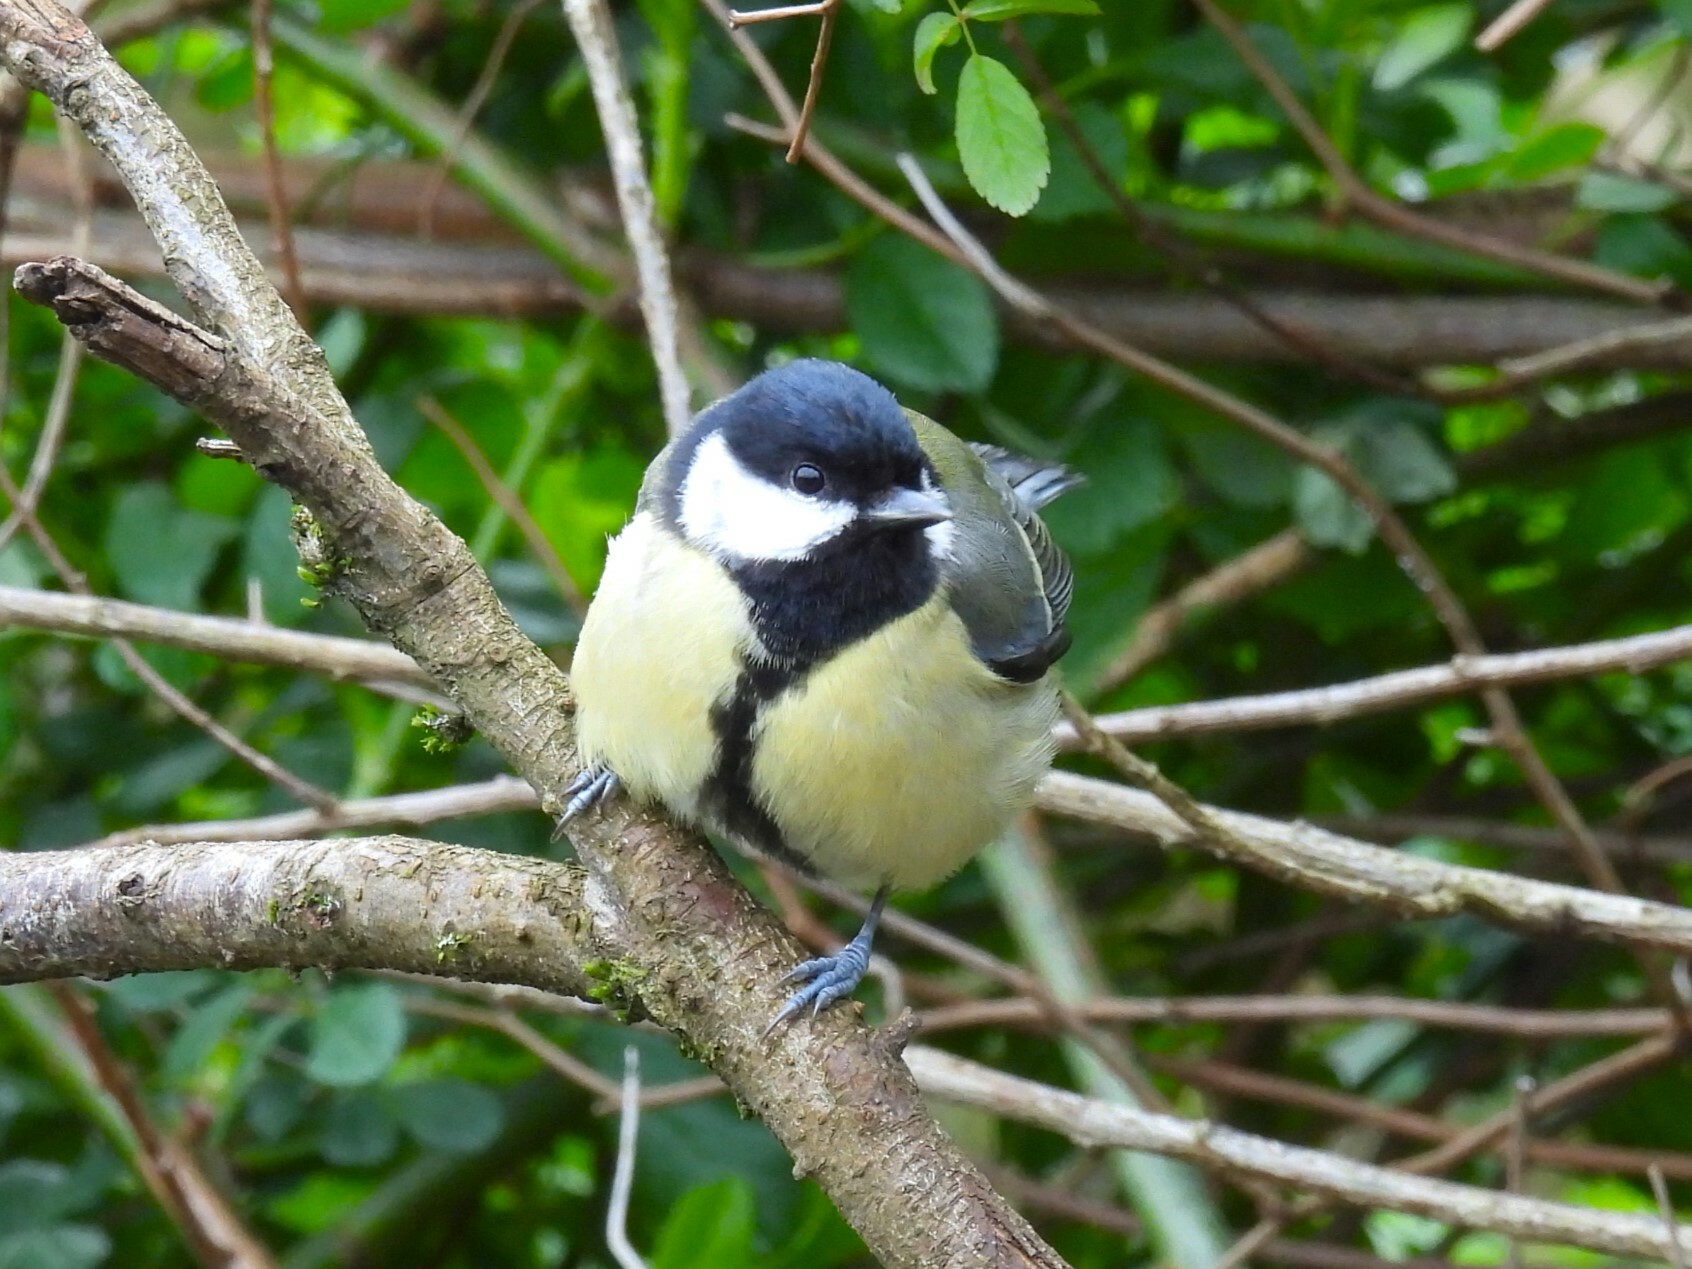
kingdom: Animalia
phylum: Chordata
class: Aves
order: Passeriformes
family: Paridae
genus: Parus
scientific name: Parus major
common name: Great tit
